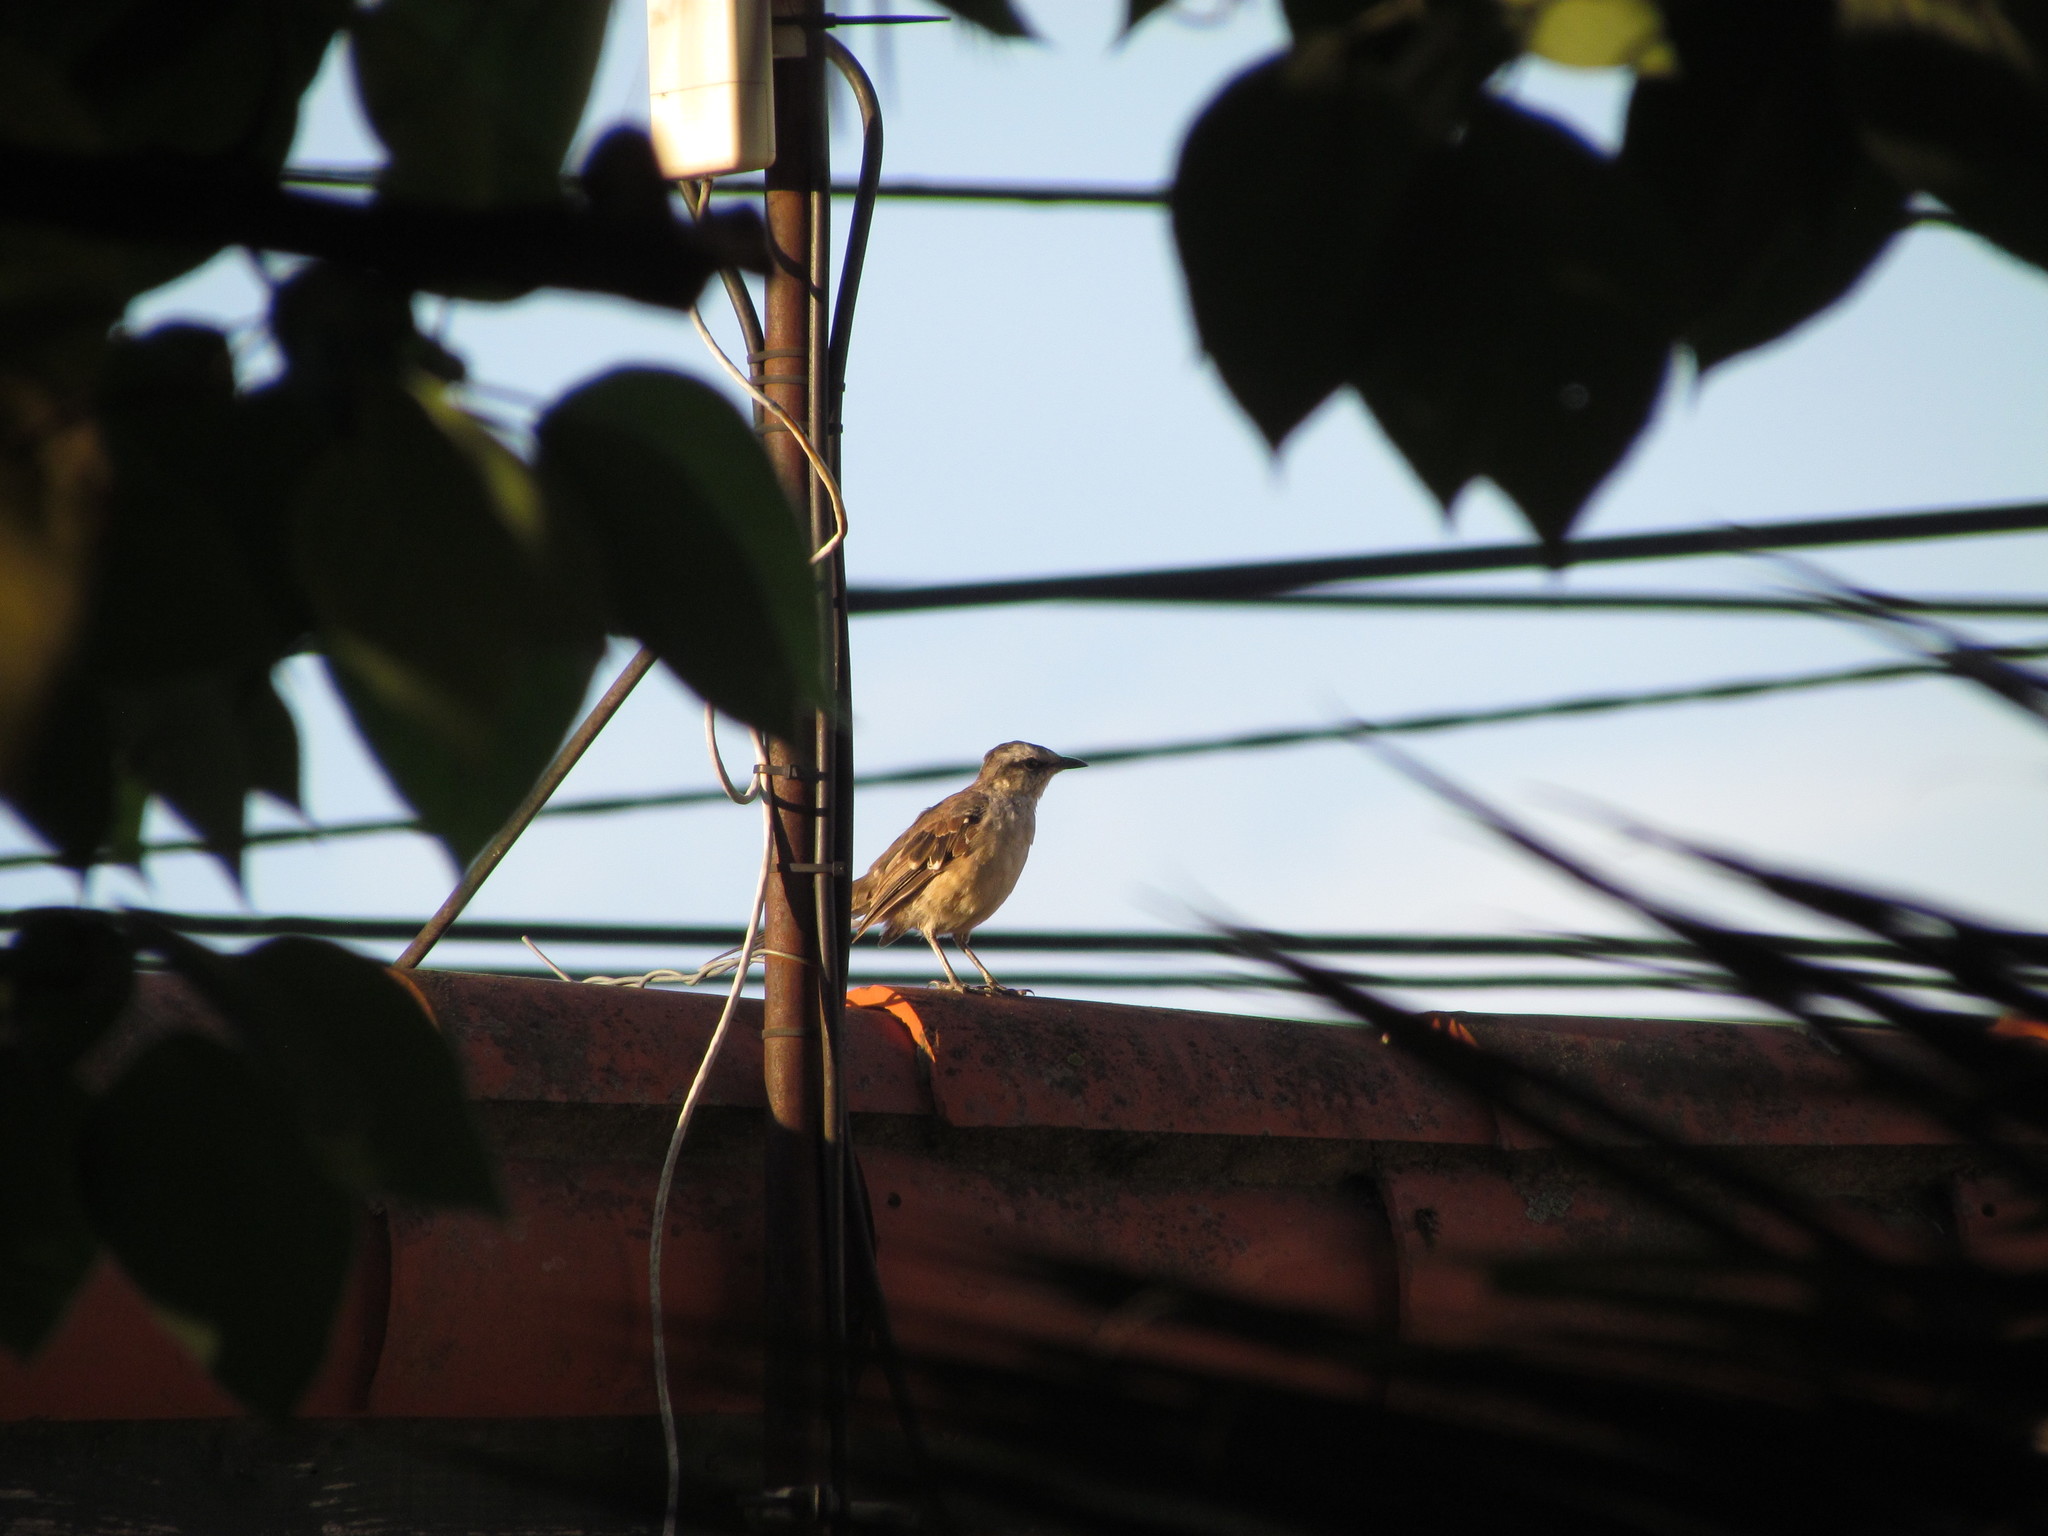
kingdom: Animalia
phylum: Chordata
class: Aves
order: Passeriformes
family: Mimidae
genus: Mimus
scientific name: Mimus saturninus
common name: Chalk-browed mockingbird
